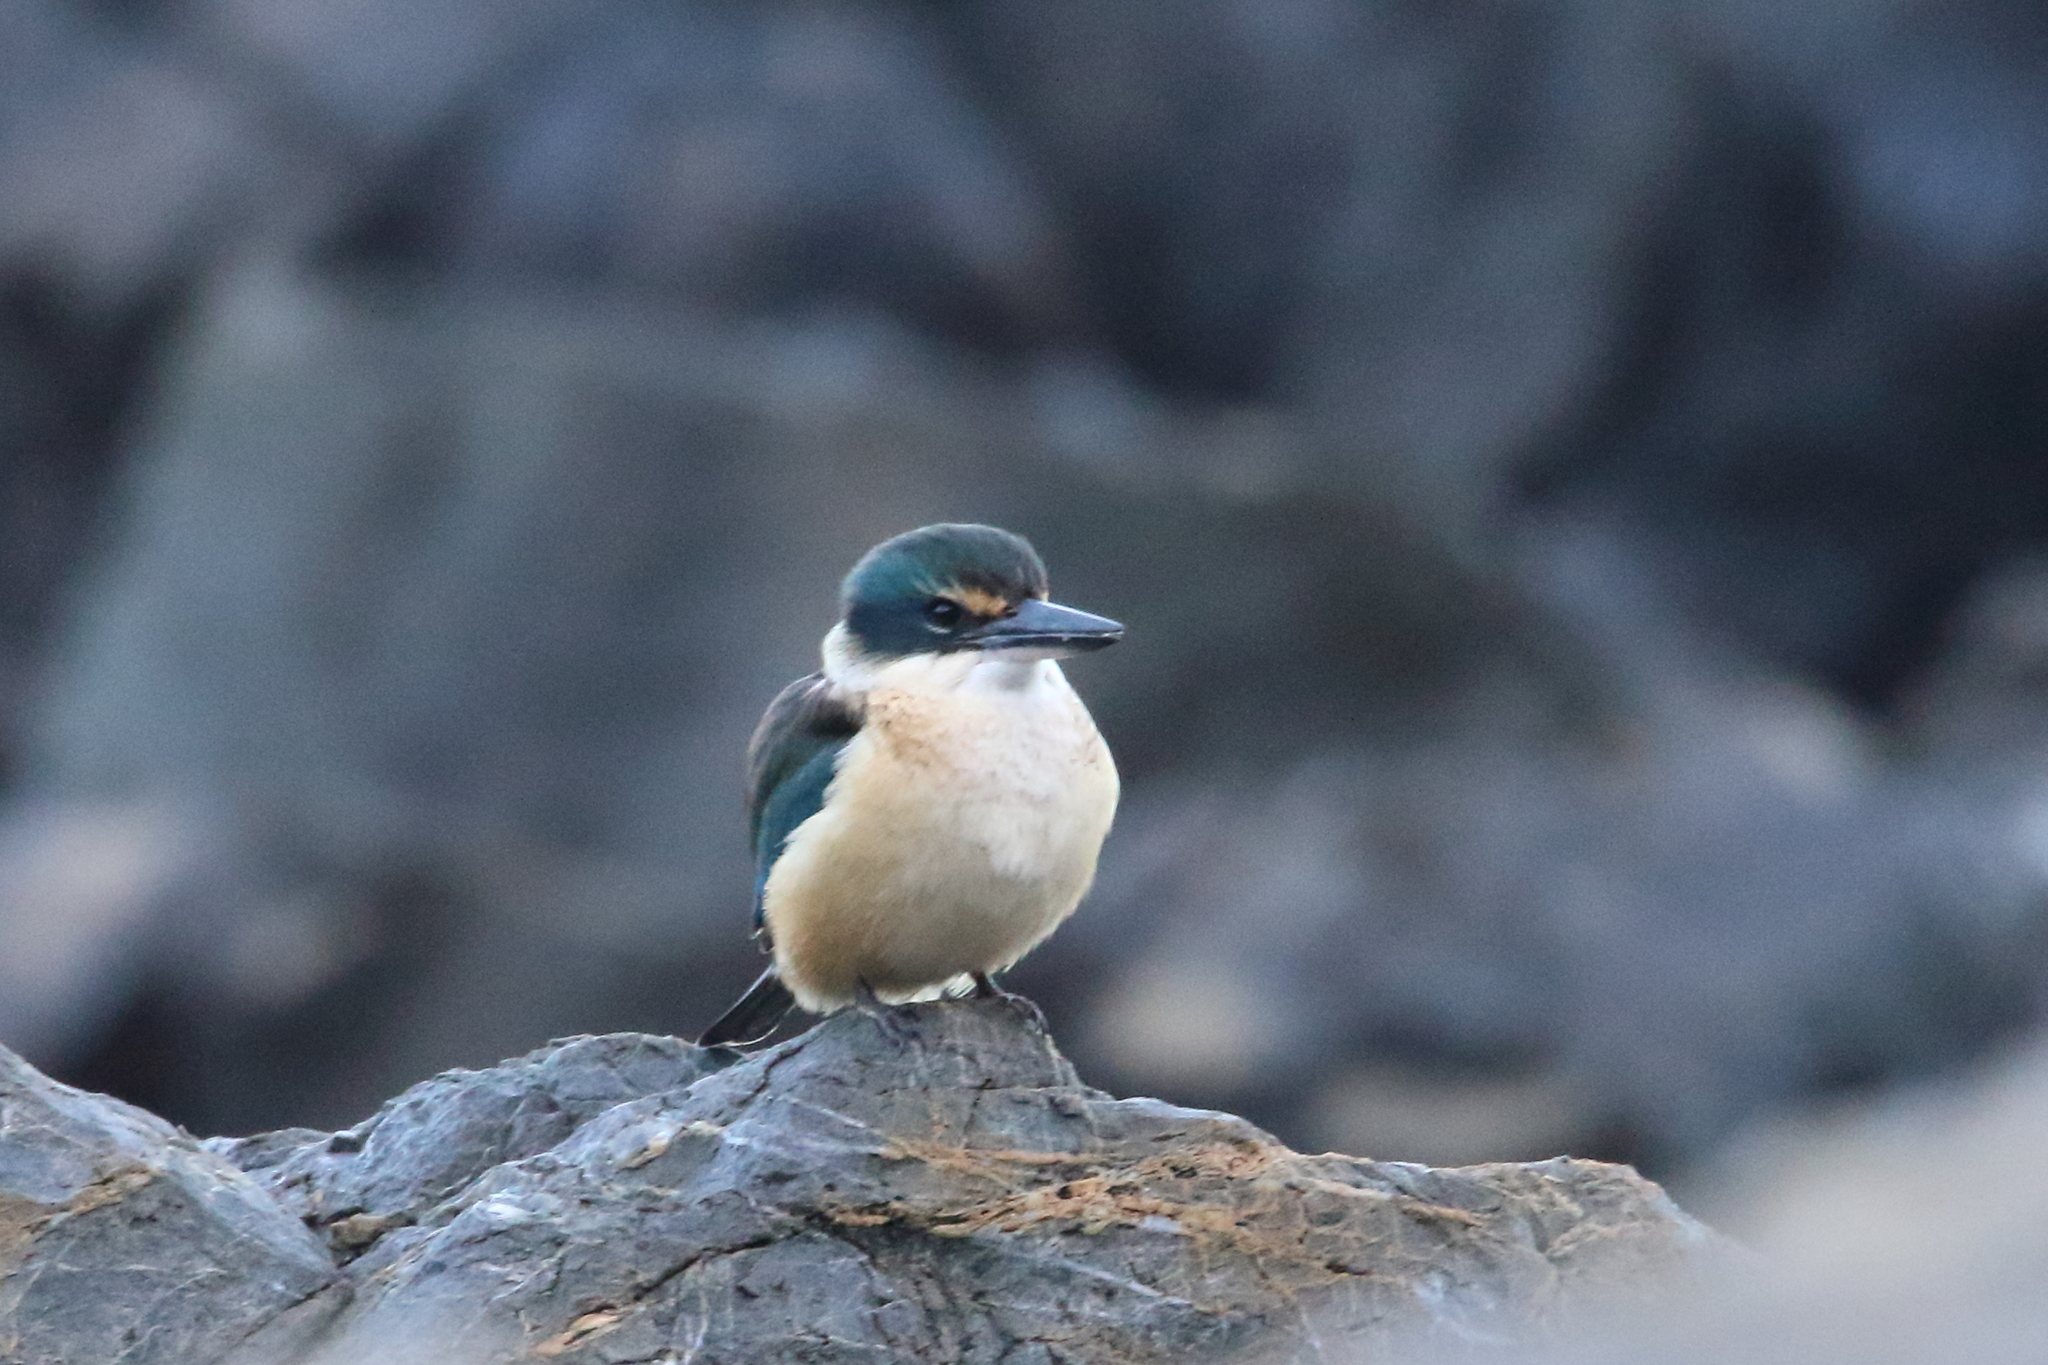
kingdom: Animalia
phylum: Chordata
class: Aves
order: Coraciiformes
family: Alcedinidae
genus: Todiramphus
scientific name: Todiramphus sanctus
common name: Sacred kingfisher
